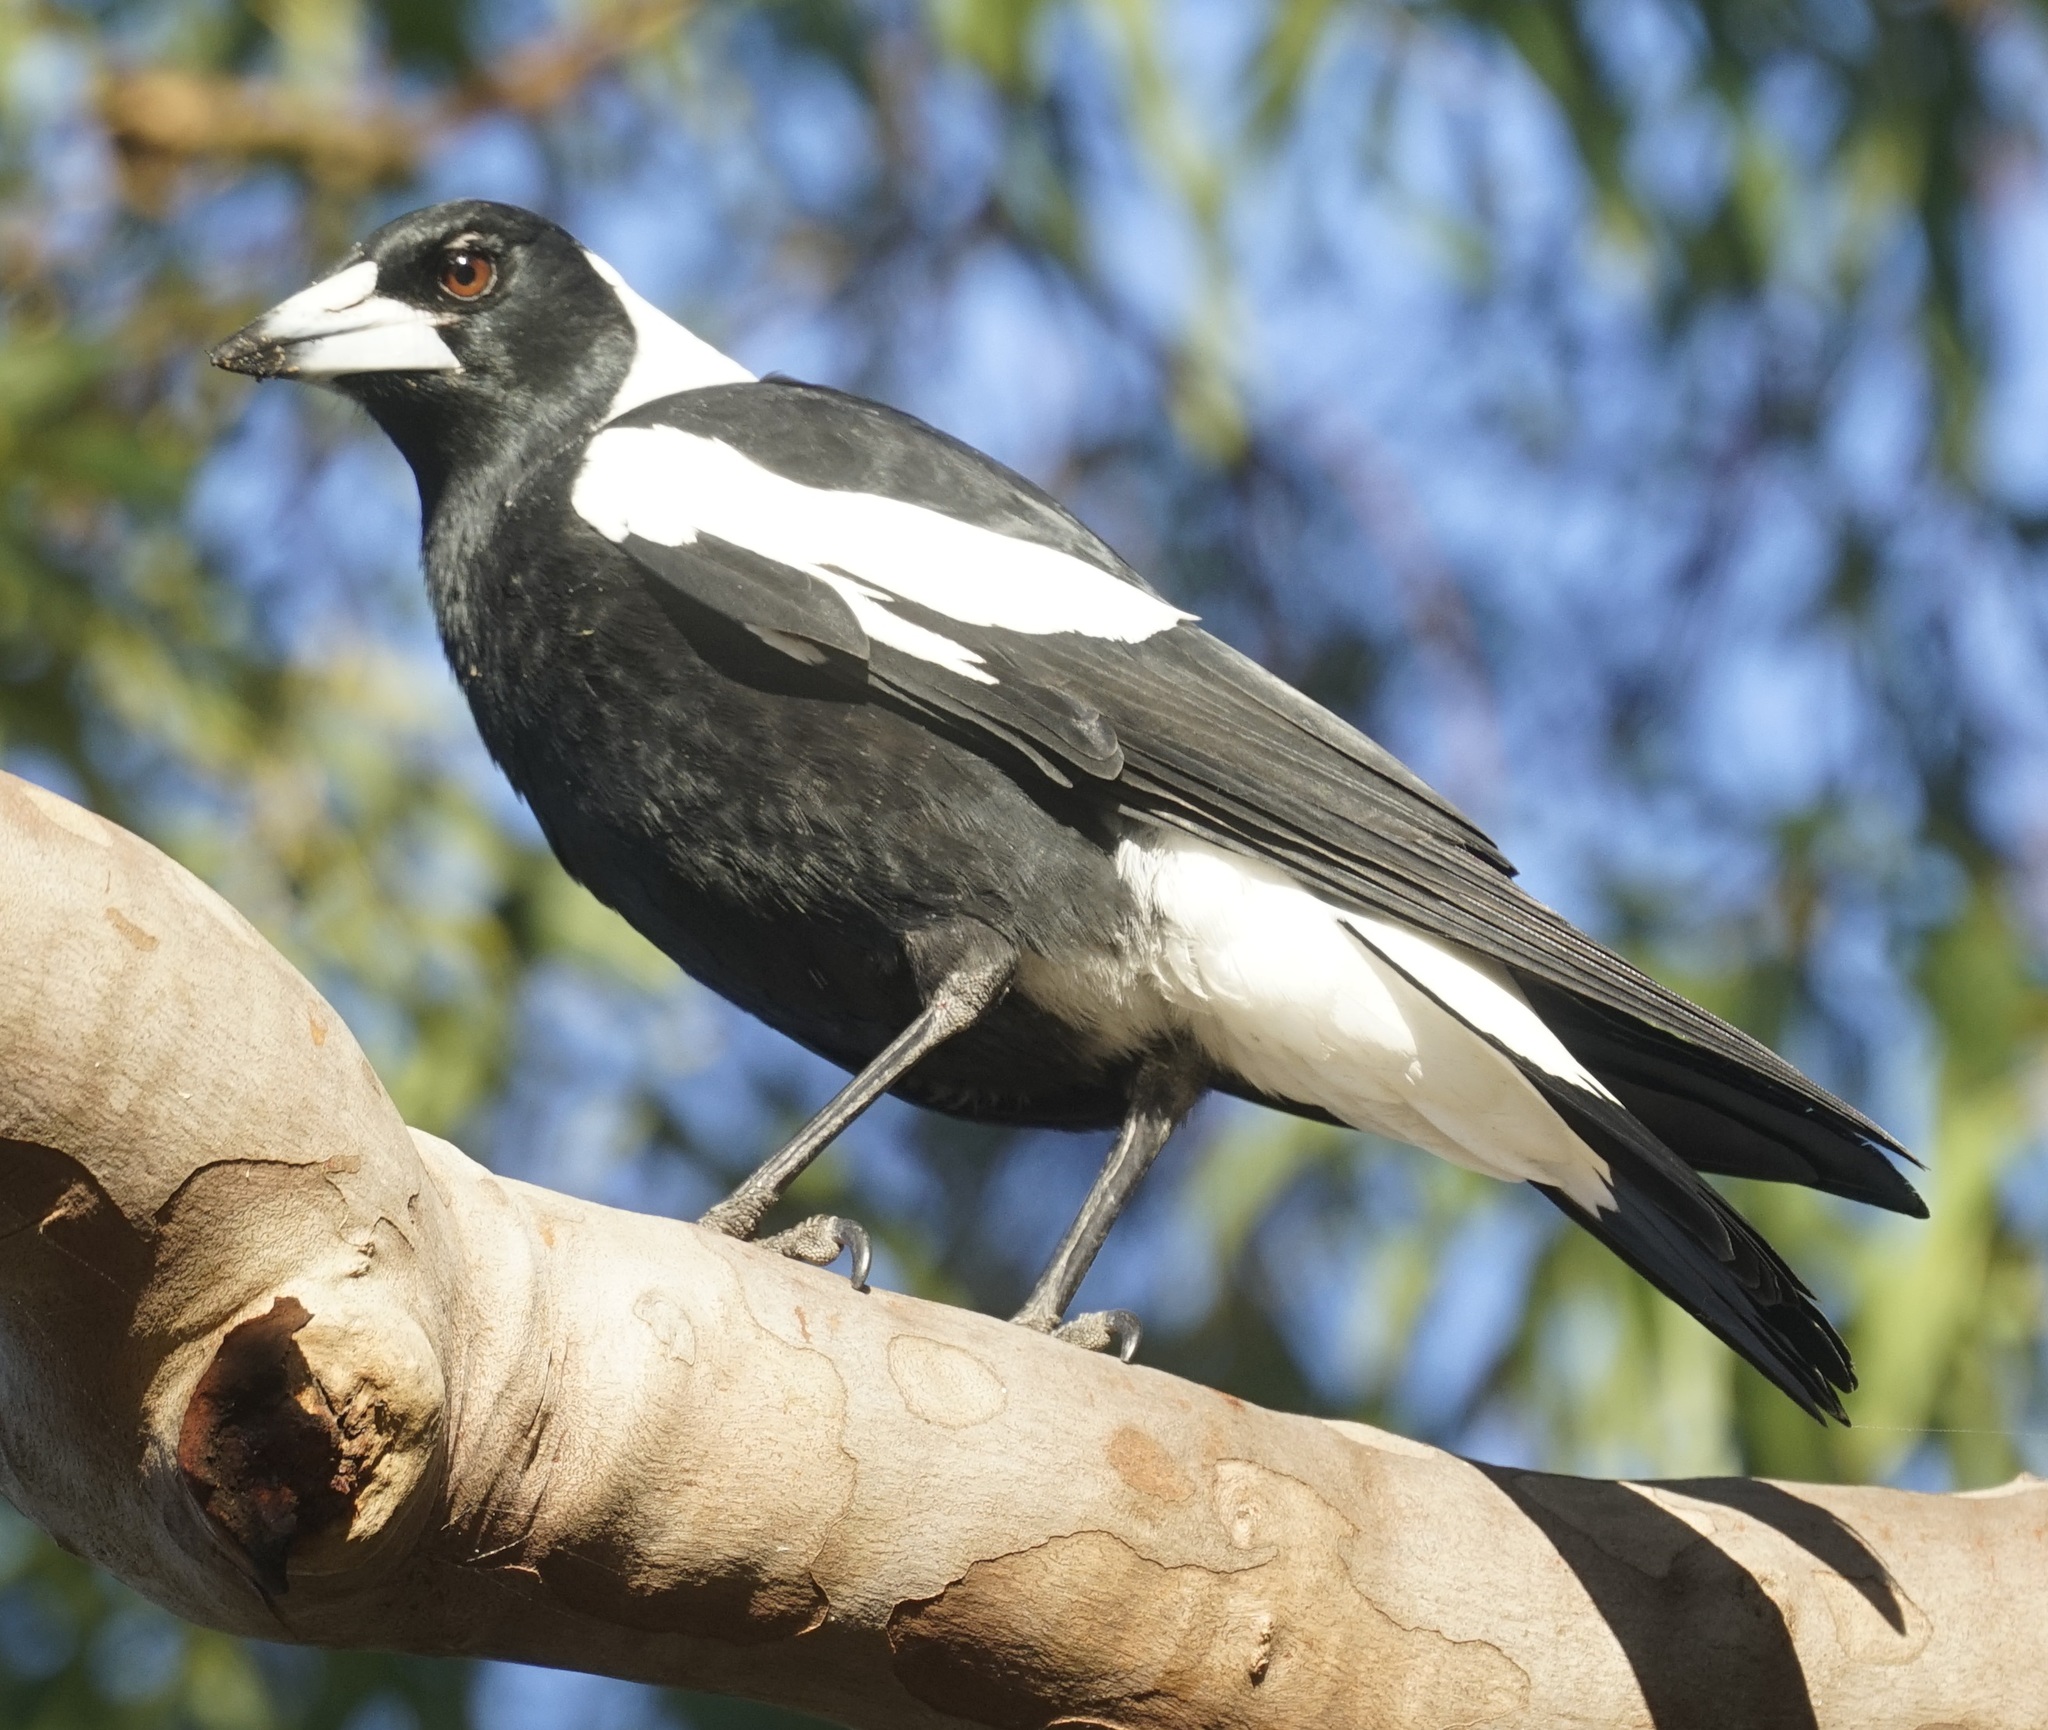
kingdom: Animalia
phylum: Chordata
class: Aves
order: Passeriformes
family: Cracticidae
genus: Gymnorhina
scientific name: Gymnorhina tibicen
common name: Australian magpie
